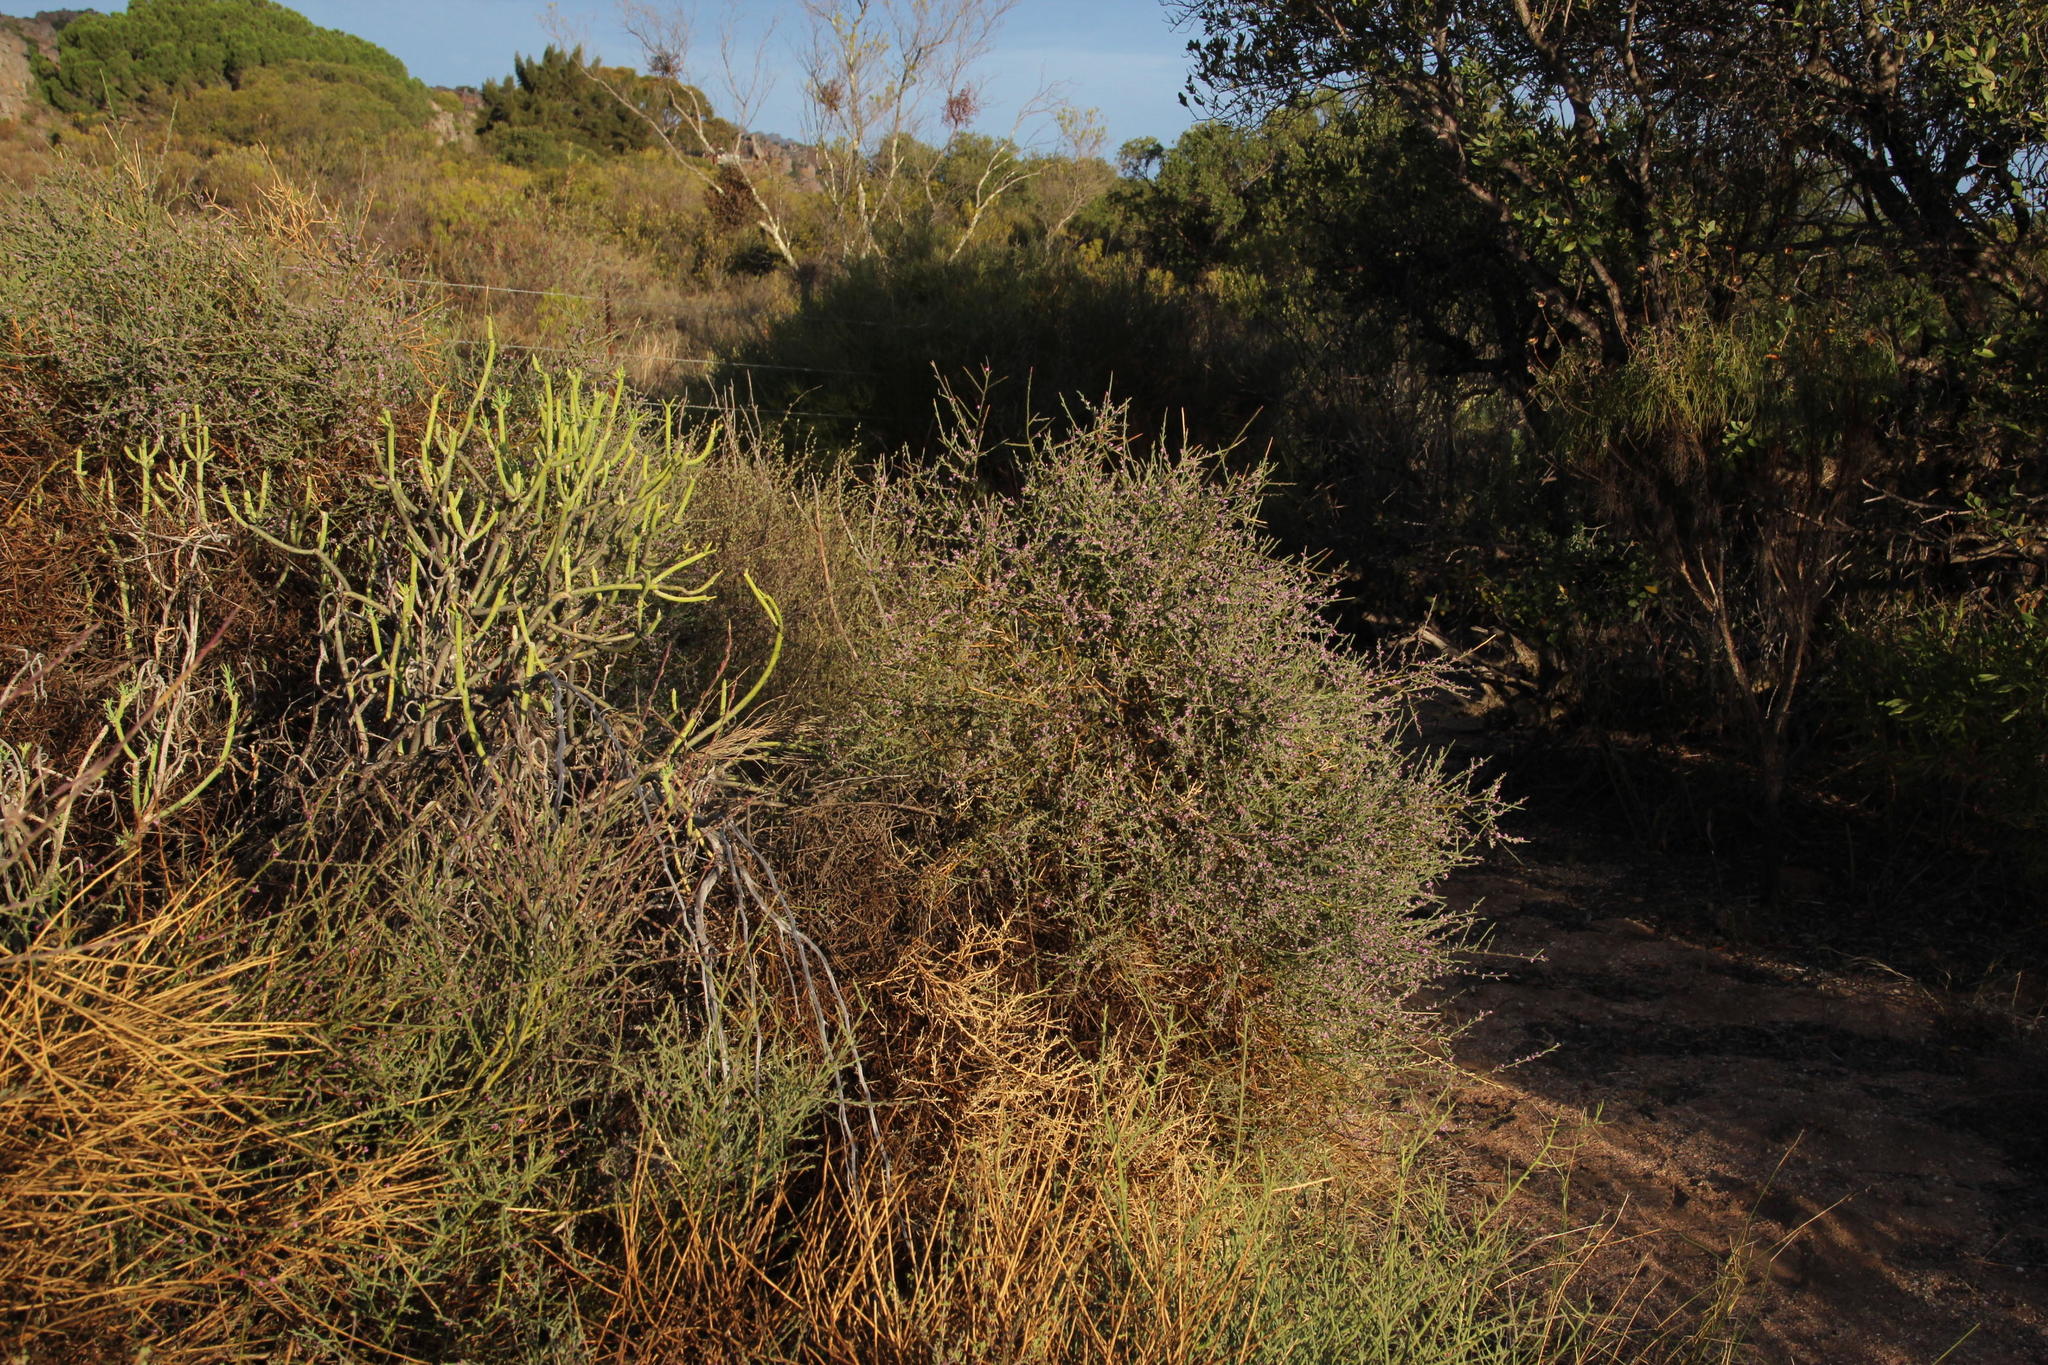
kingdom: Plantae
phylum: Tracheophyta
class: Magnoliopsida
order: Fabales
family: Polygalaceae
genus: Muraltia
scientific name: Muraltia spinosa
